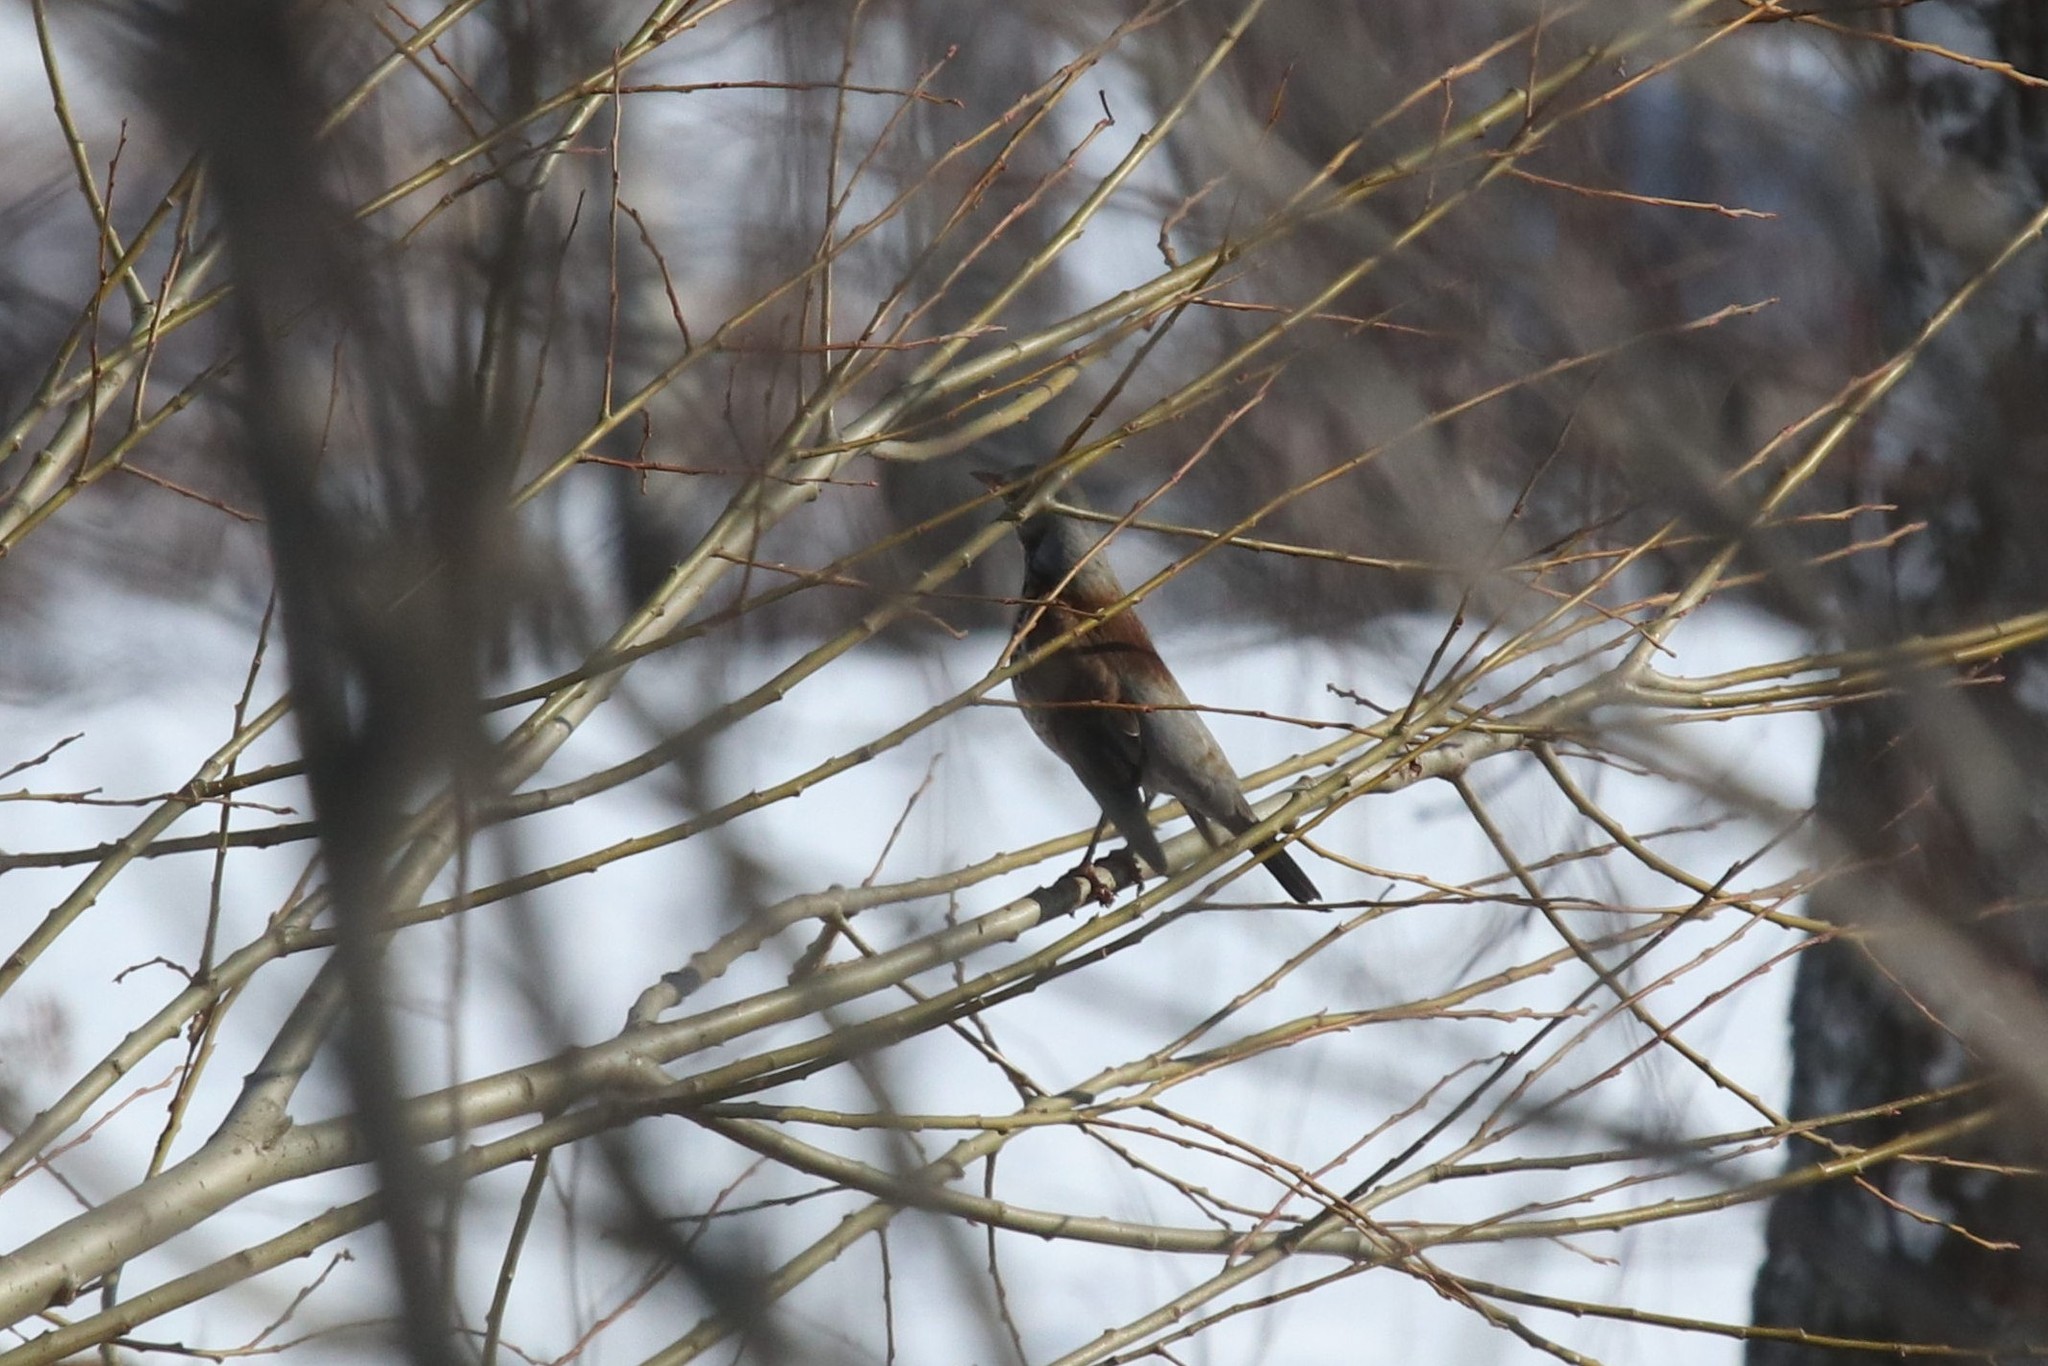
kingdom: Animalia
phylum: Chordata
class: Aves
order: Passeriformes
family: Turdidae
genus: Turdus
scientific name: Turdus pilaris
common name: Fieldfare
